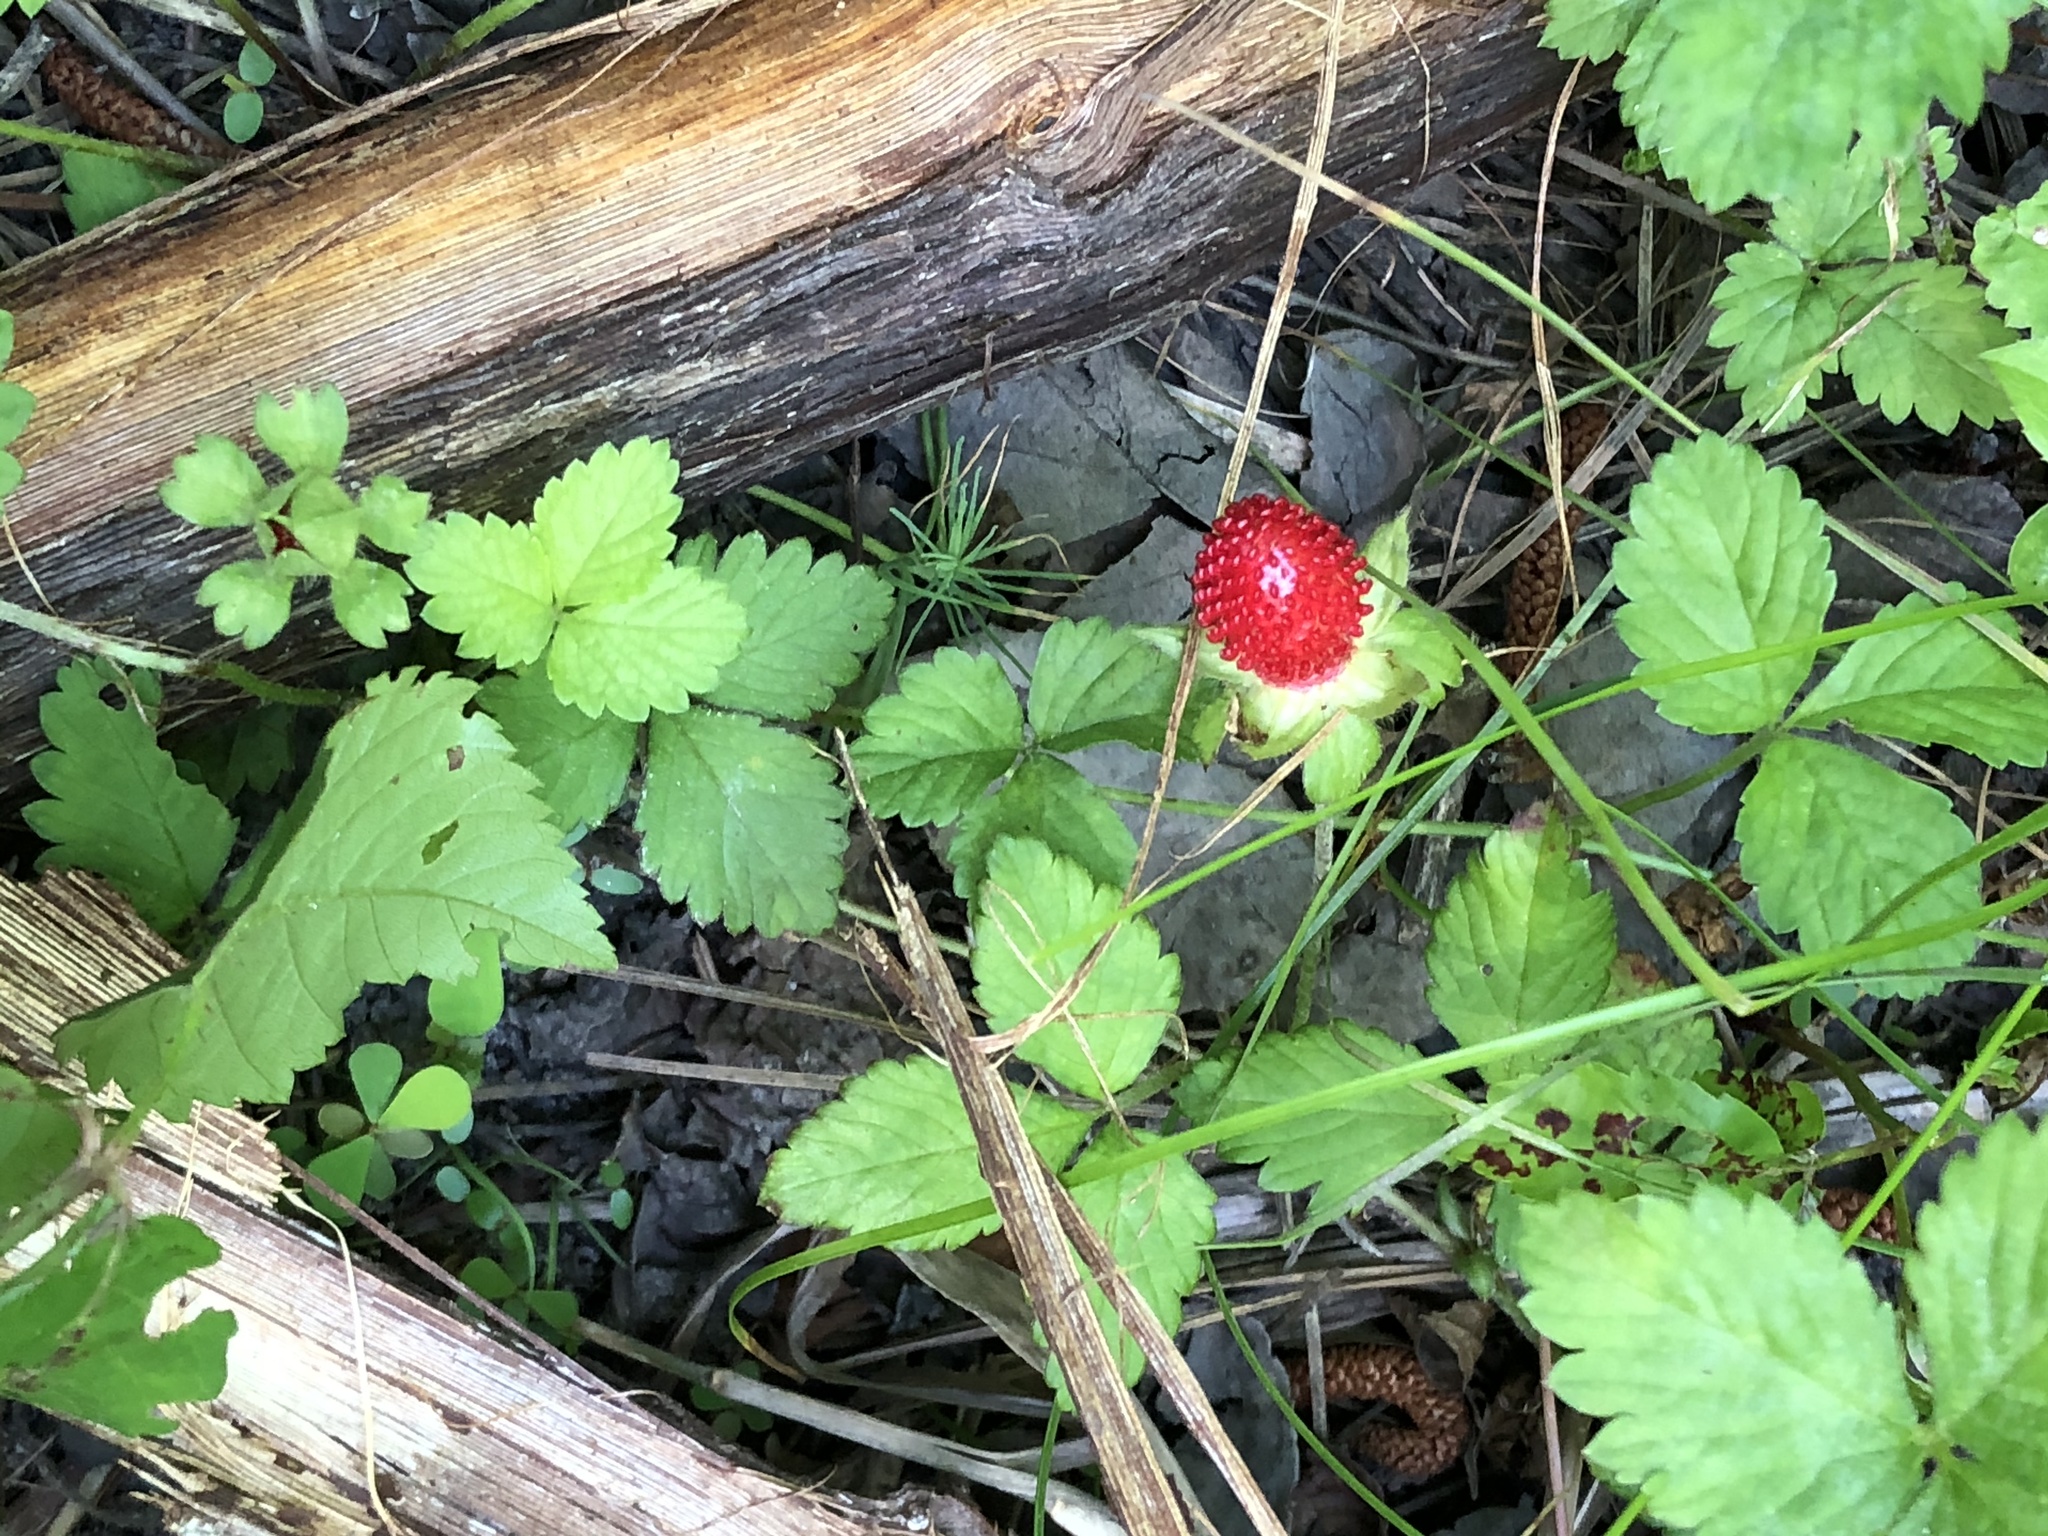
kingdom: Plantae
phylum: Tracheophyta
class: Magnoliopsida
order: Rosales
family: Rosaceae
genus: Potentilla
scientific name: Potentilla indica
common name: Yellow-flowered strawberry
